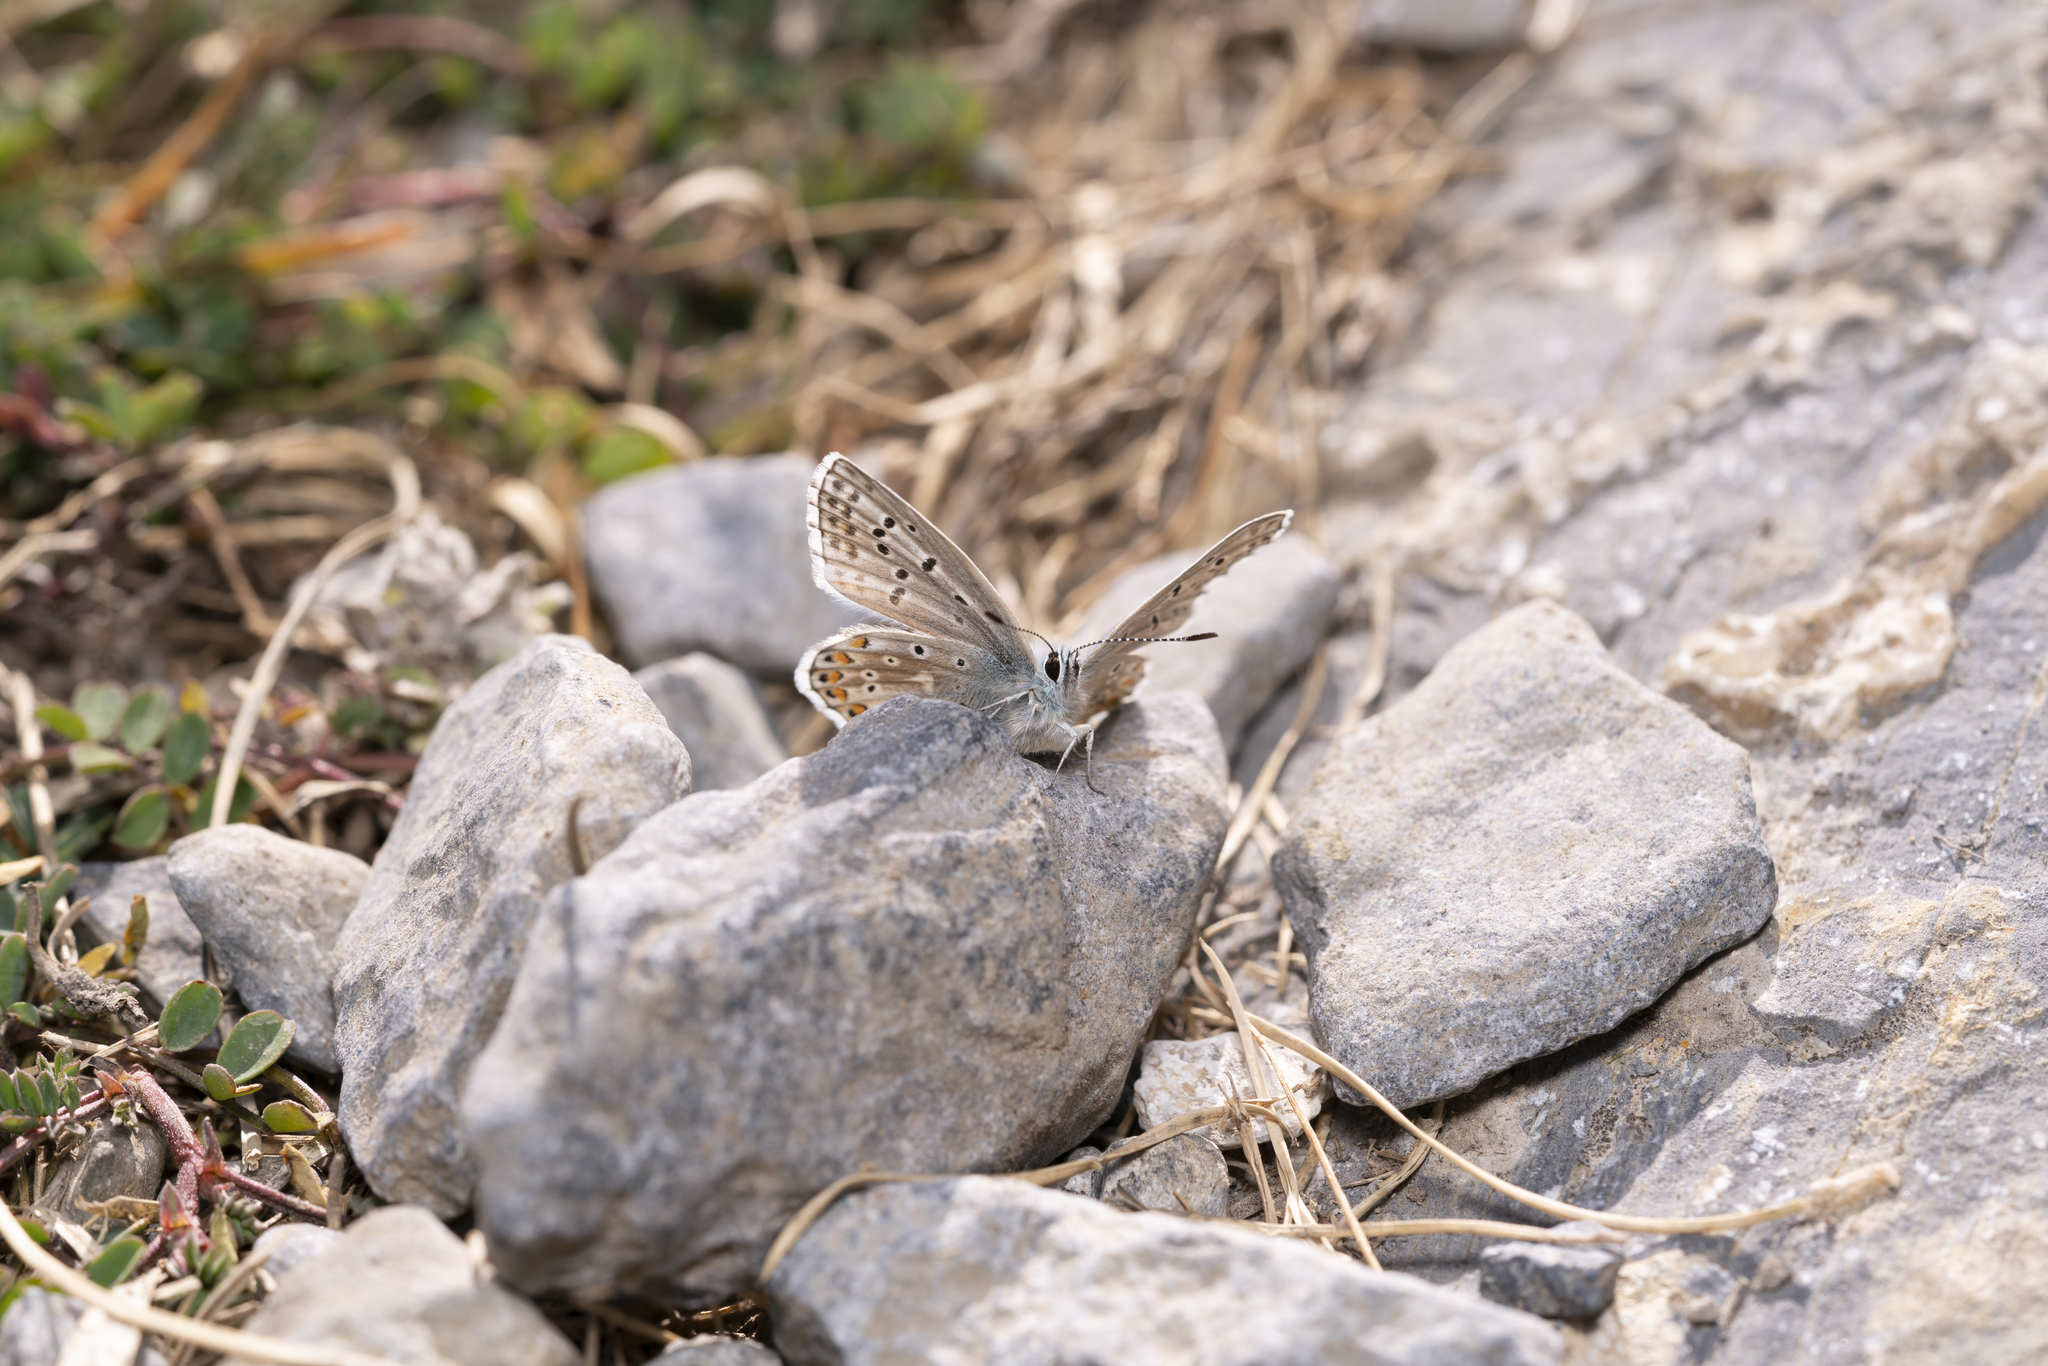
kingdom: Animalia
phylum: Arthropoda
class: Insecta
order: Lepidoptera
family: Lycaenidae
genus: Lysandra
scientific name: Lysandra bellargus
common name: Adonis blue
